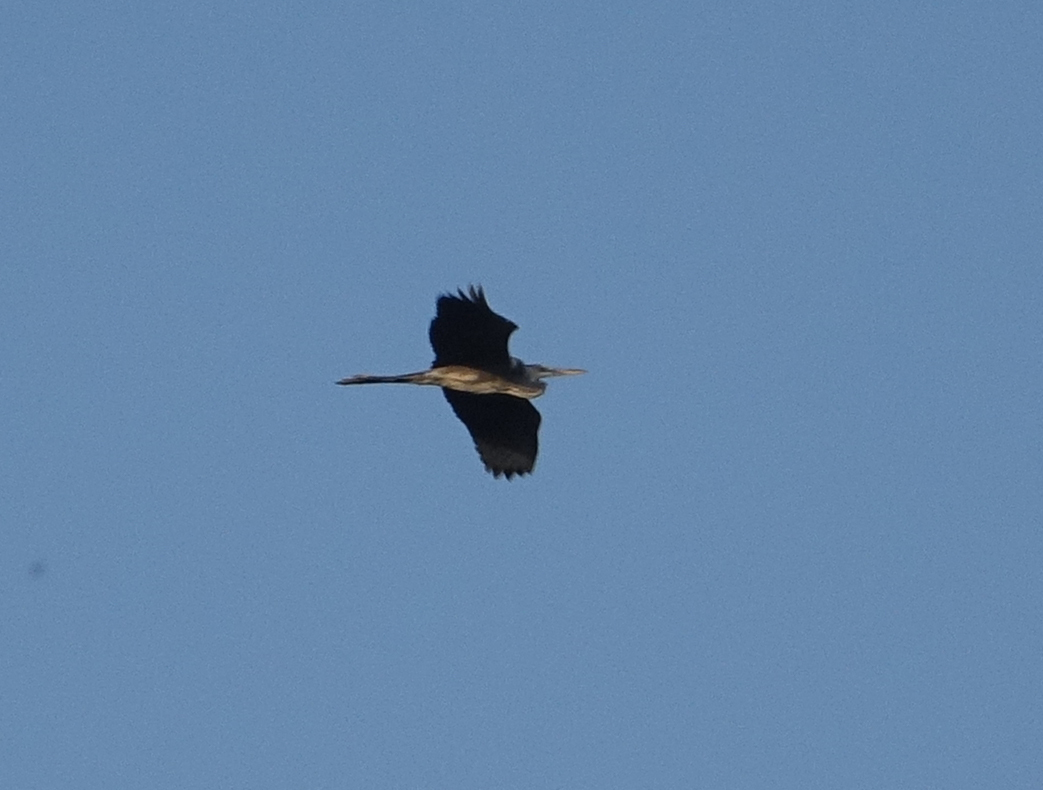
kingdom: Animalia
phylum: Chordata
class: Aves
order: Pelecaniformes
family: Ardeidae
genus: Ardea
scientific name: Ardea cinerea
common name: Grey heron
